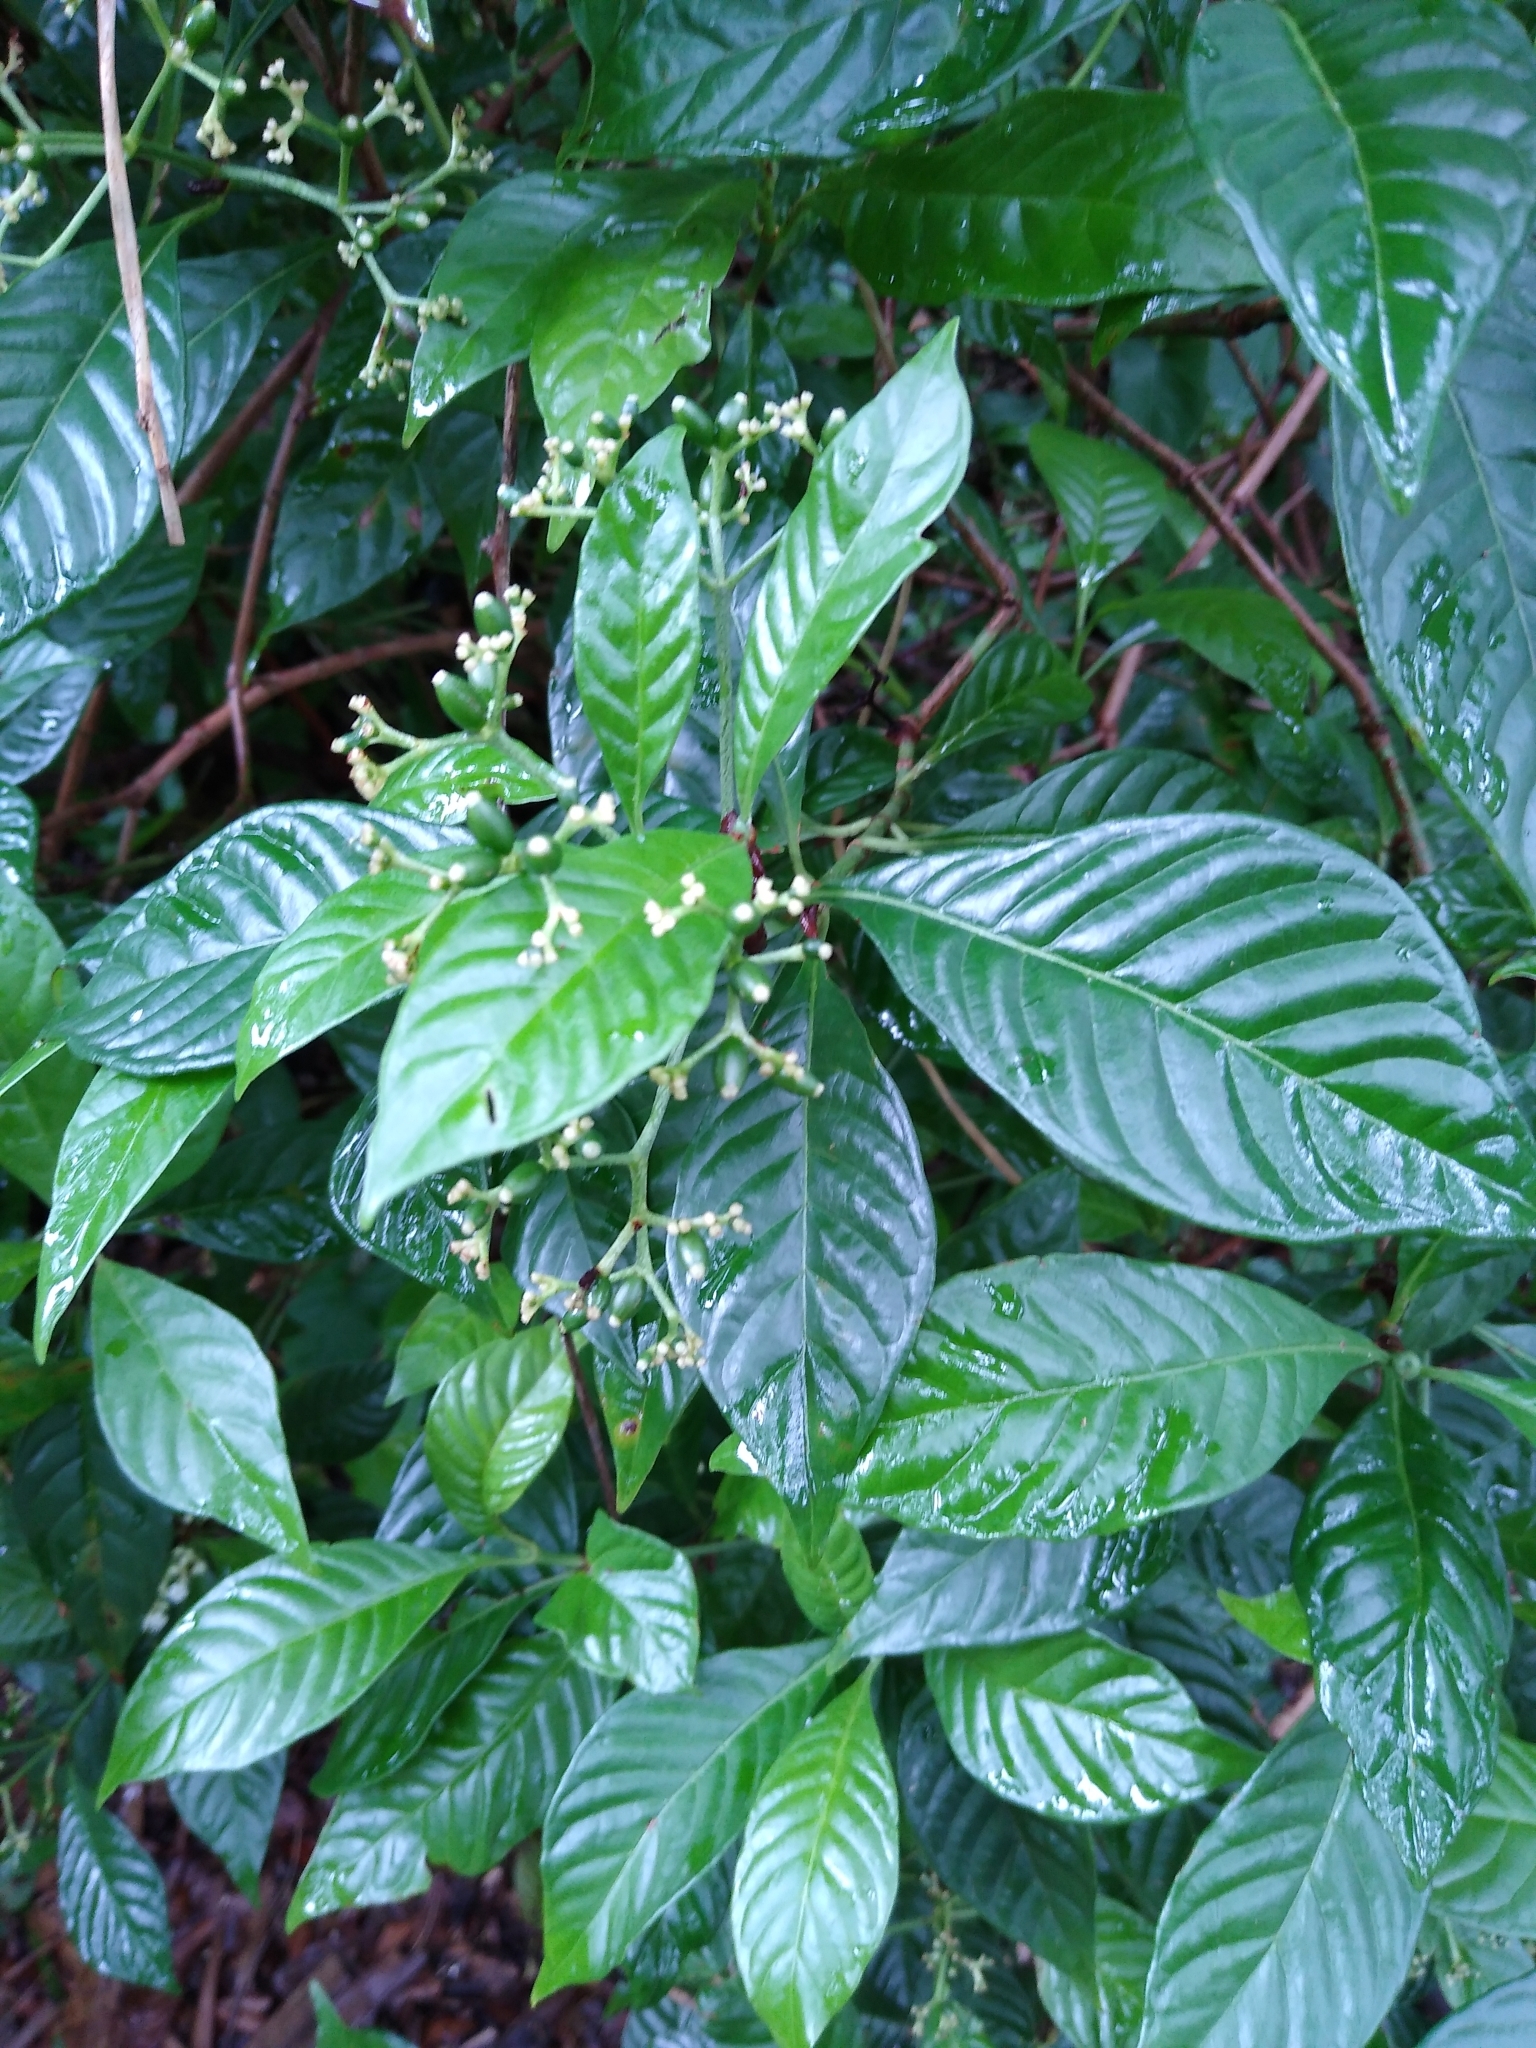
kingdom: Plantae
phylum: Tracheophyta
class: Magnoliopsida
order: Gentianales
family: Rubiaceae
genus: Psychotria
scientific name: Psychotria nervosa
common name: Bastard cankerberry
